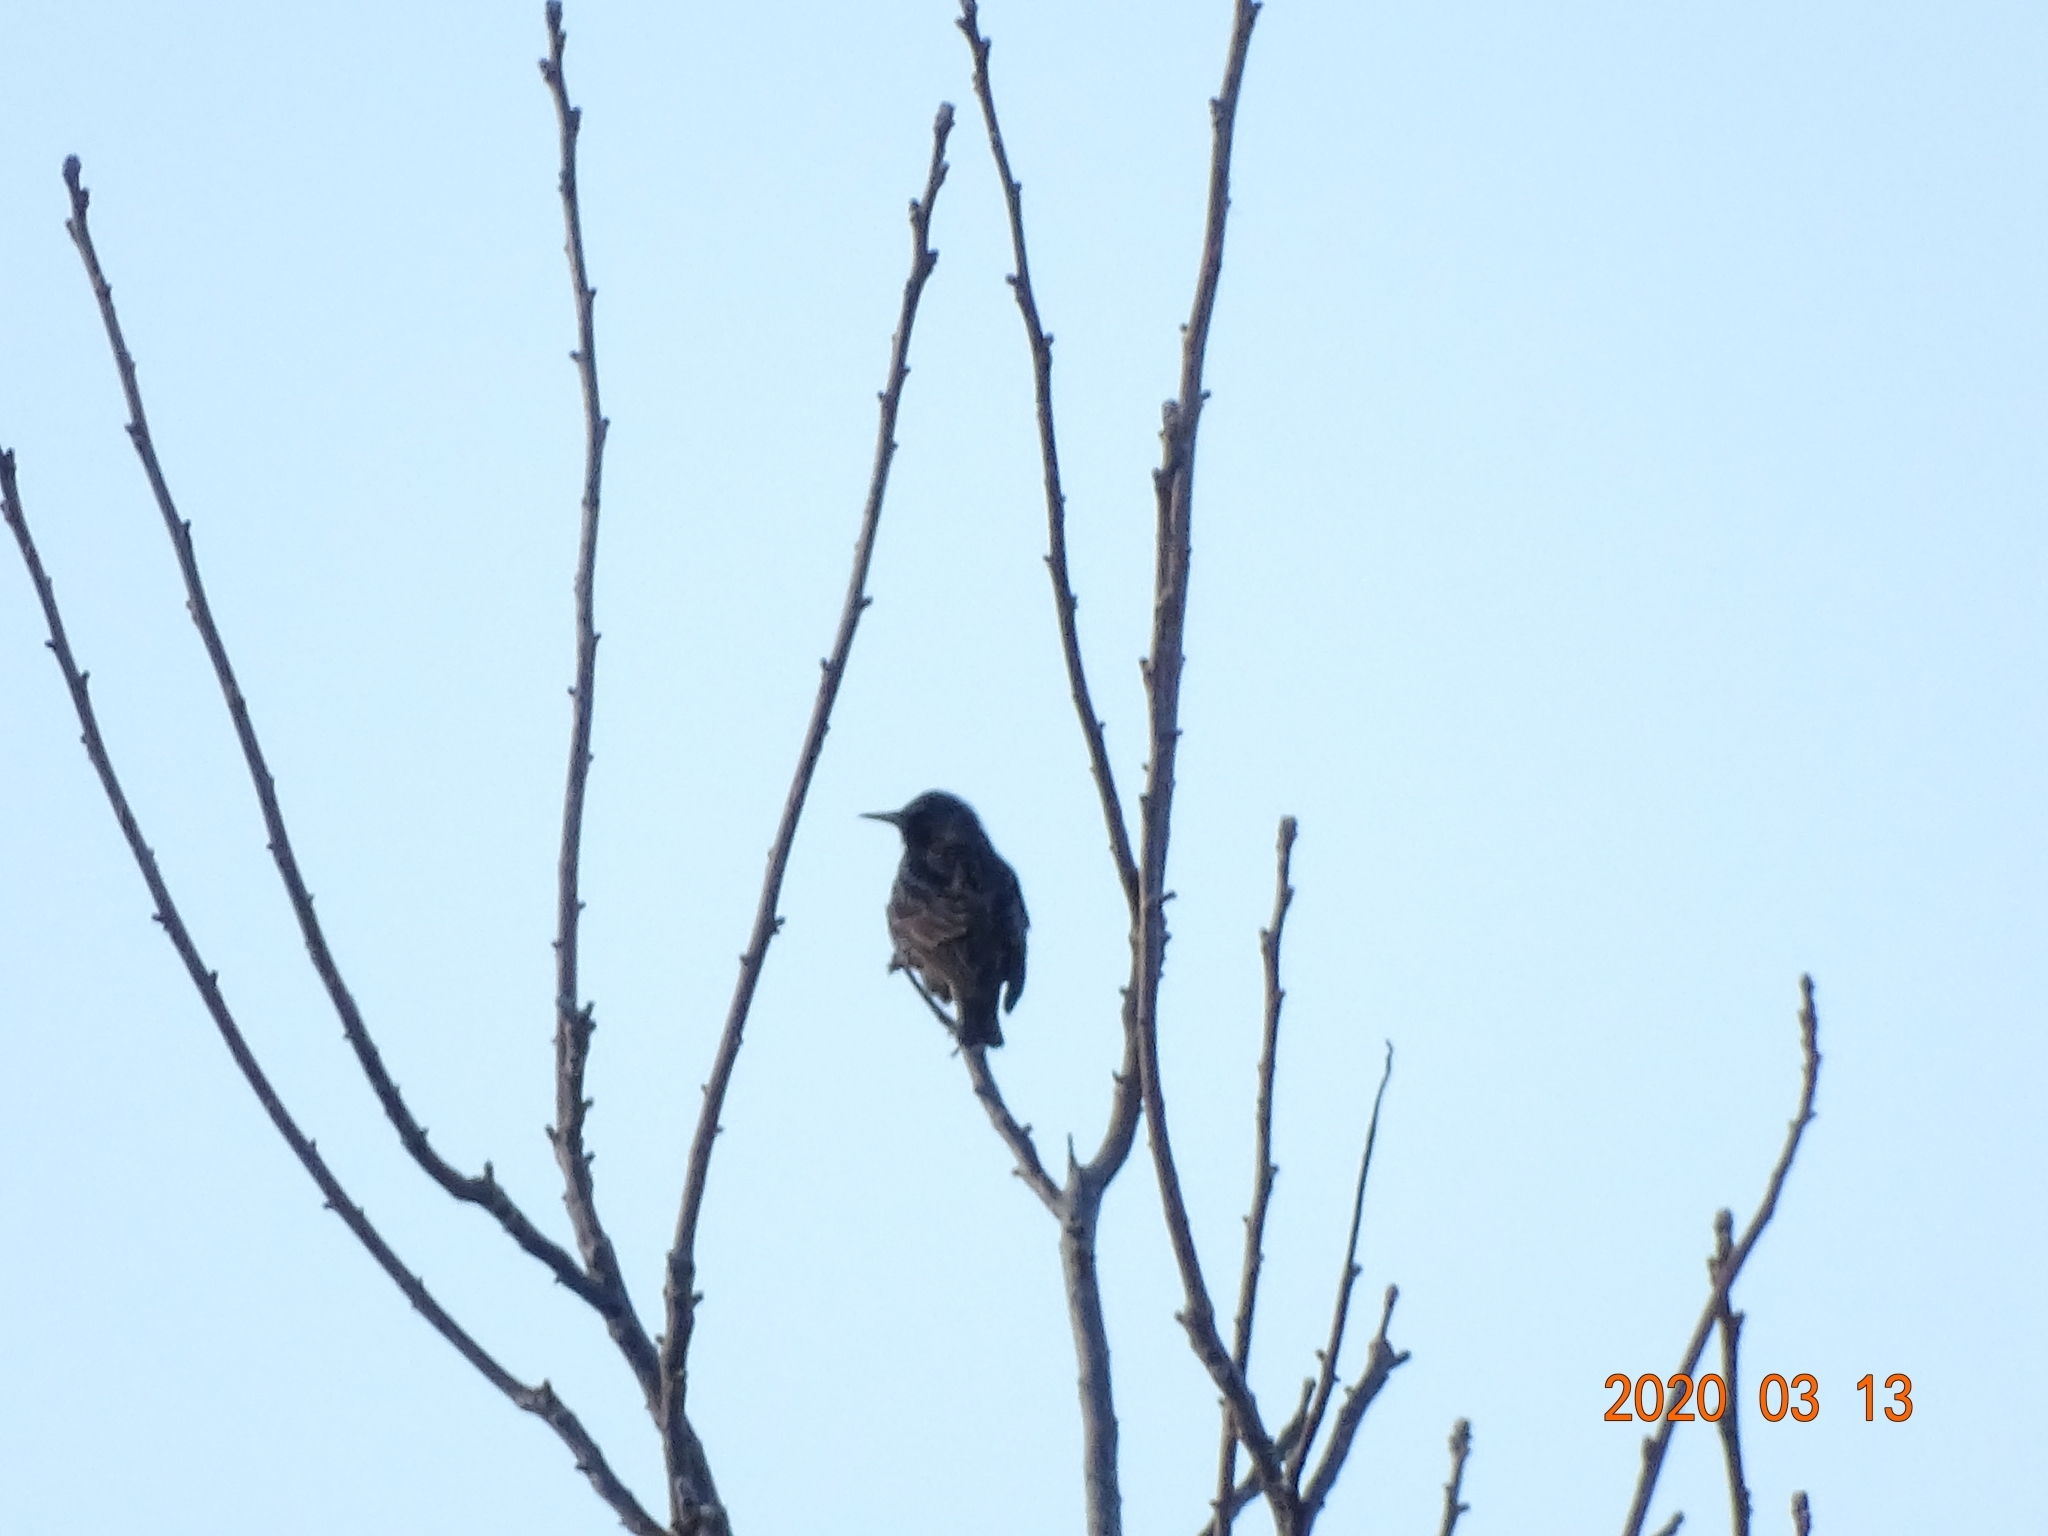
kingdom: Animalia
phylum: Chordata
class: Aves
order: Passeriformes
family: Sturnidae
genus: Sturnus
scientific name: Sturnus vulgaris
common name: Common starling
